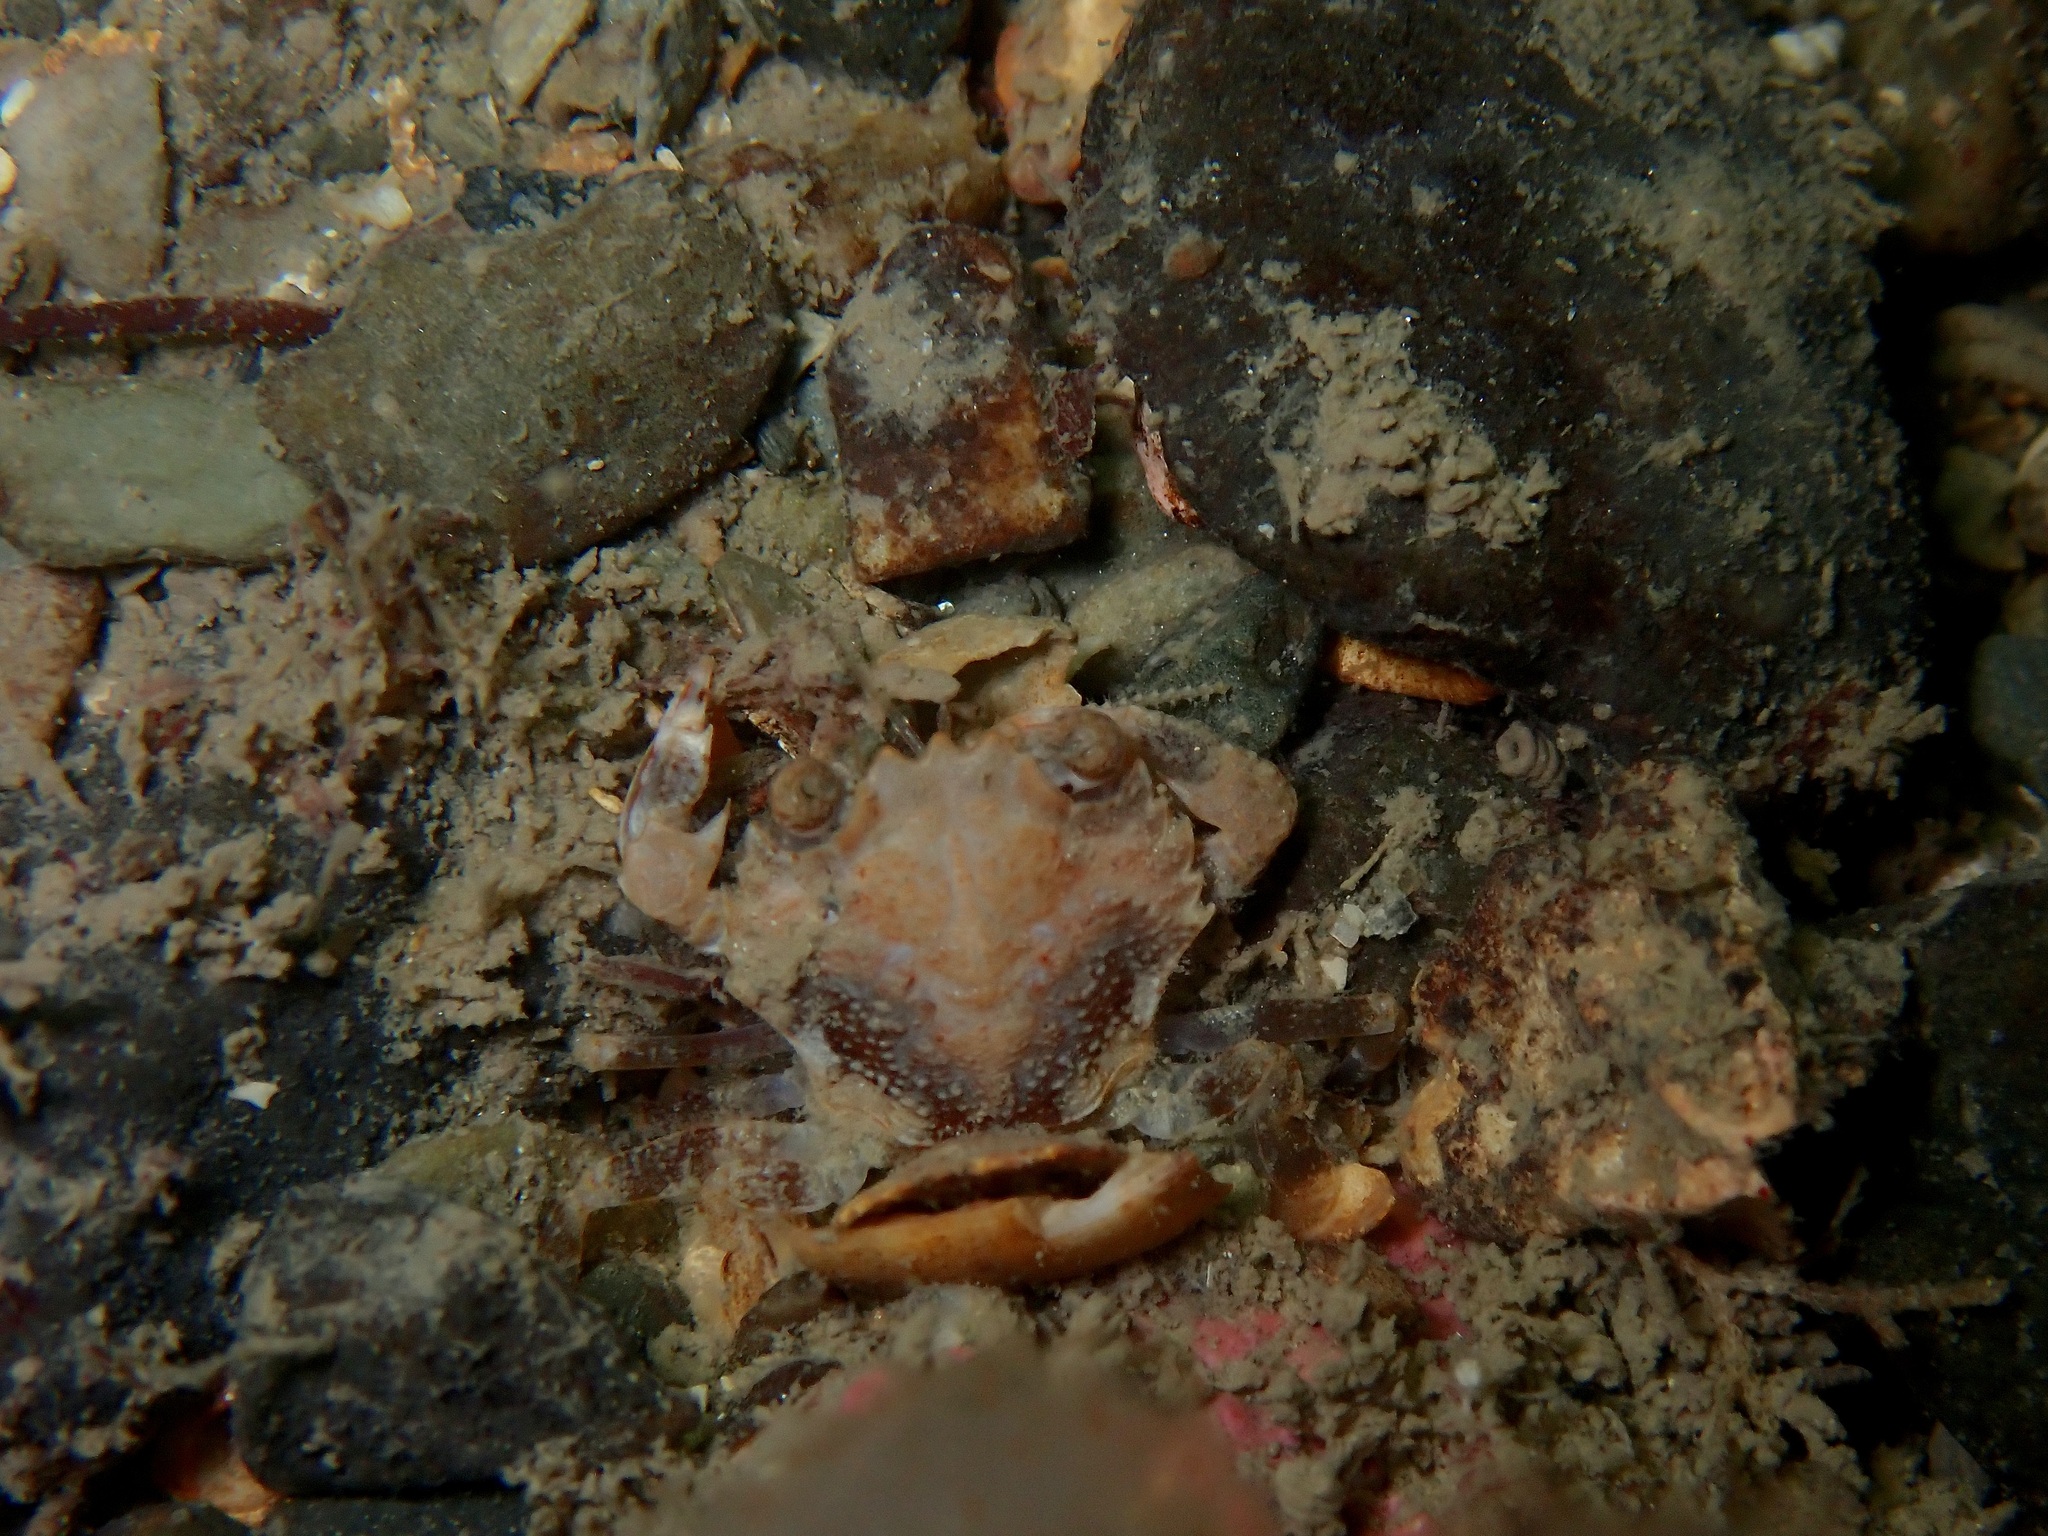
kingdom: Animalia
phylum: Arthropoda
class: Malacostraca
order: Decapoda
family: Polybiidae
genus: Liocarcinus
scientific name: Liocarcinus pusillus
